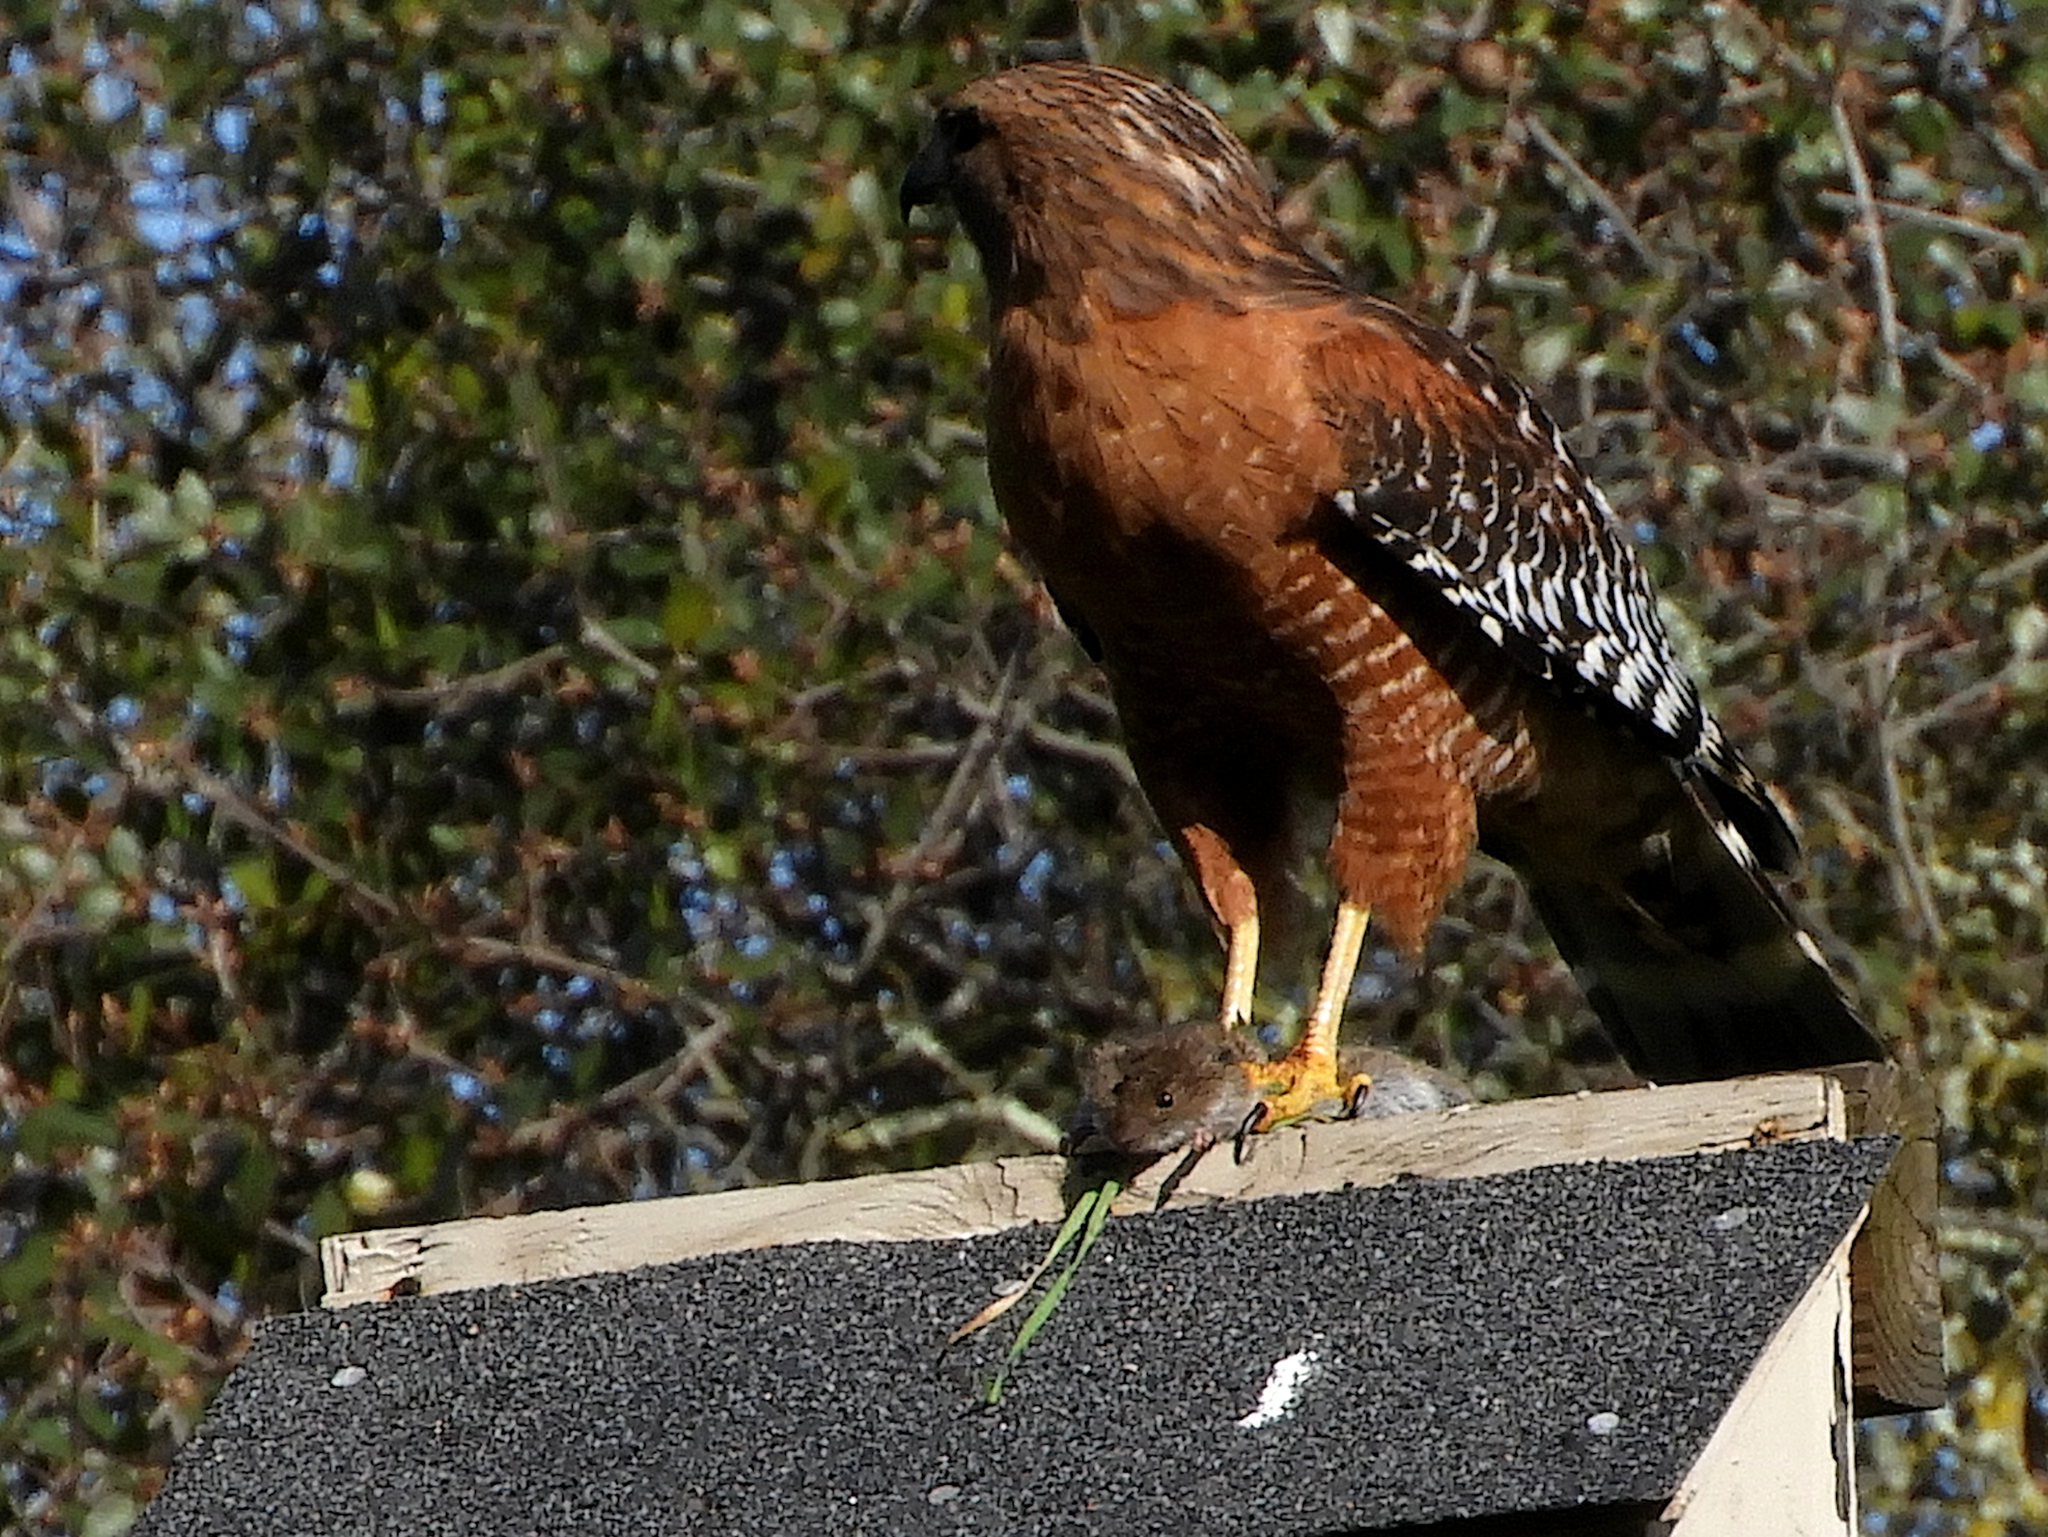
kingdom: Animalia
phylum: Chordata
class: Aves
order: Accipitriformes
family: Accipitridae
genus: Buteo
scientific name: Buteo lineatus
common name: Red-shouldered hawk
